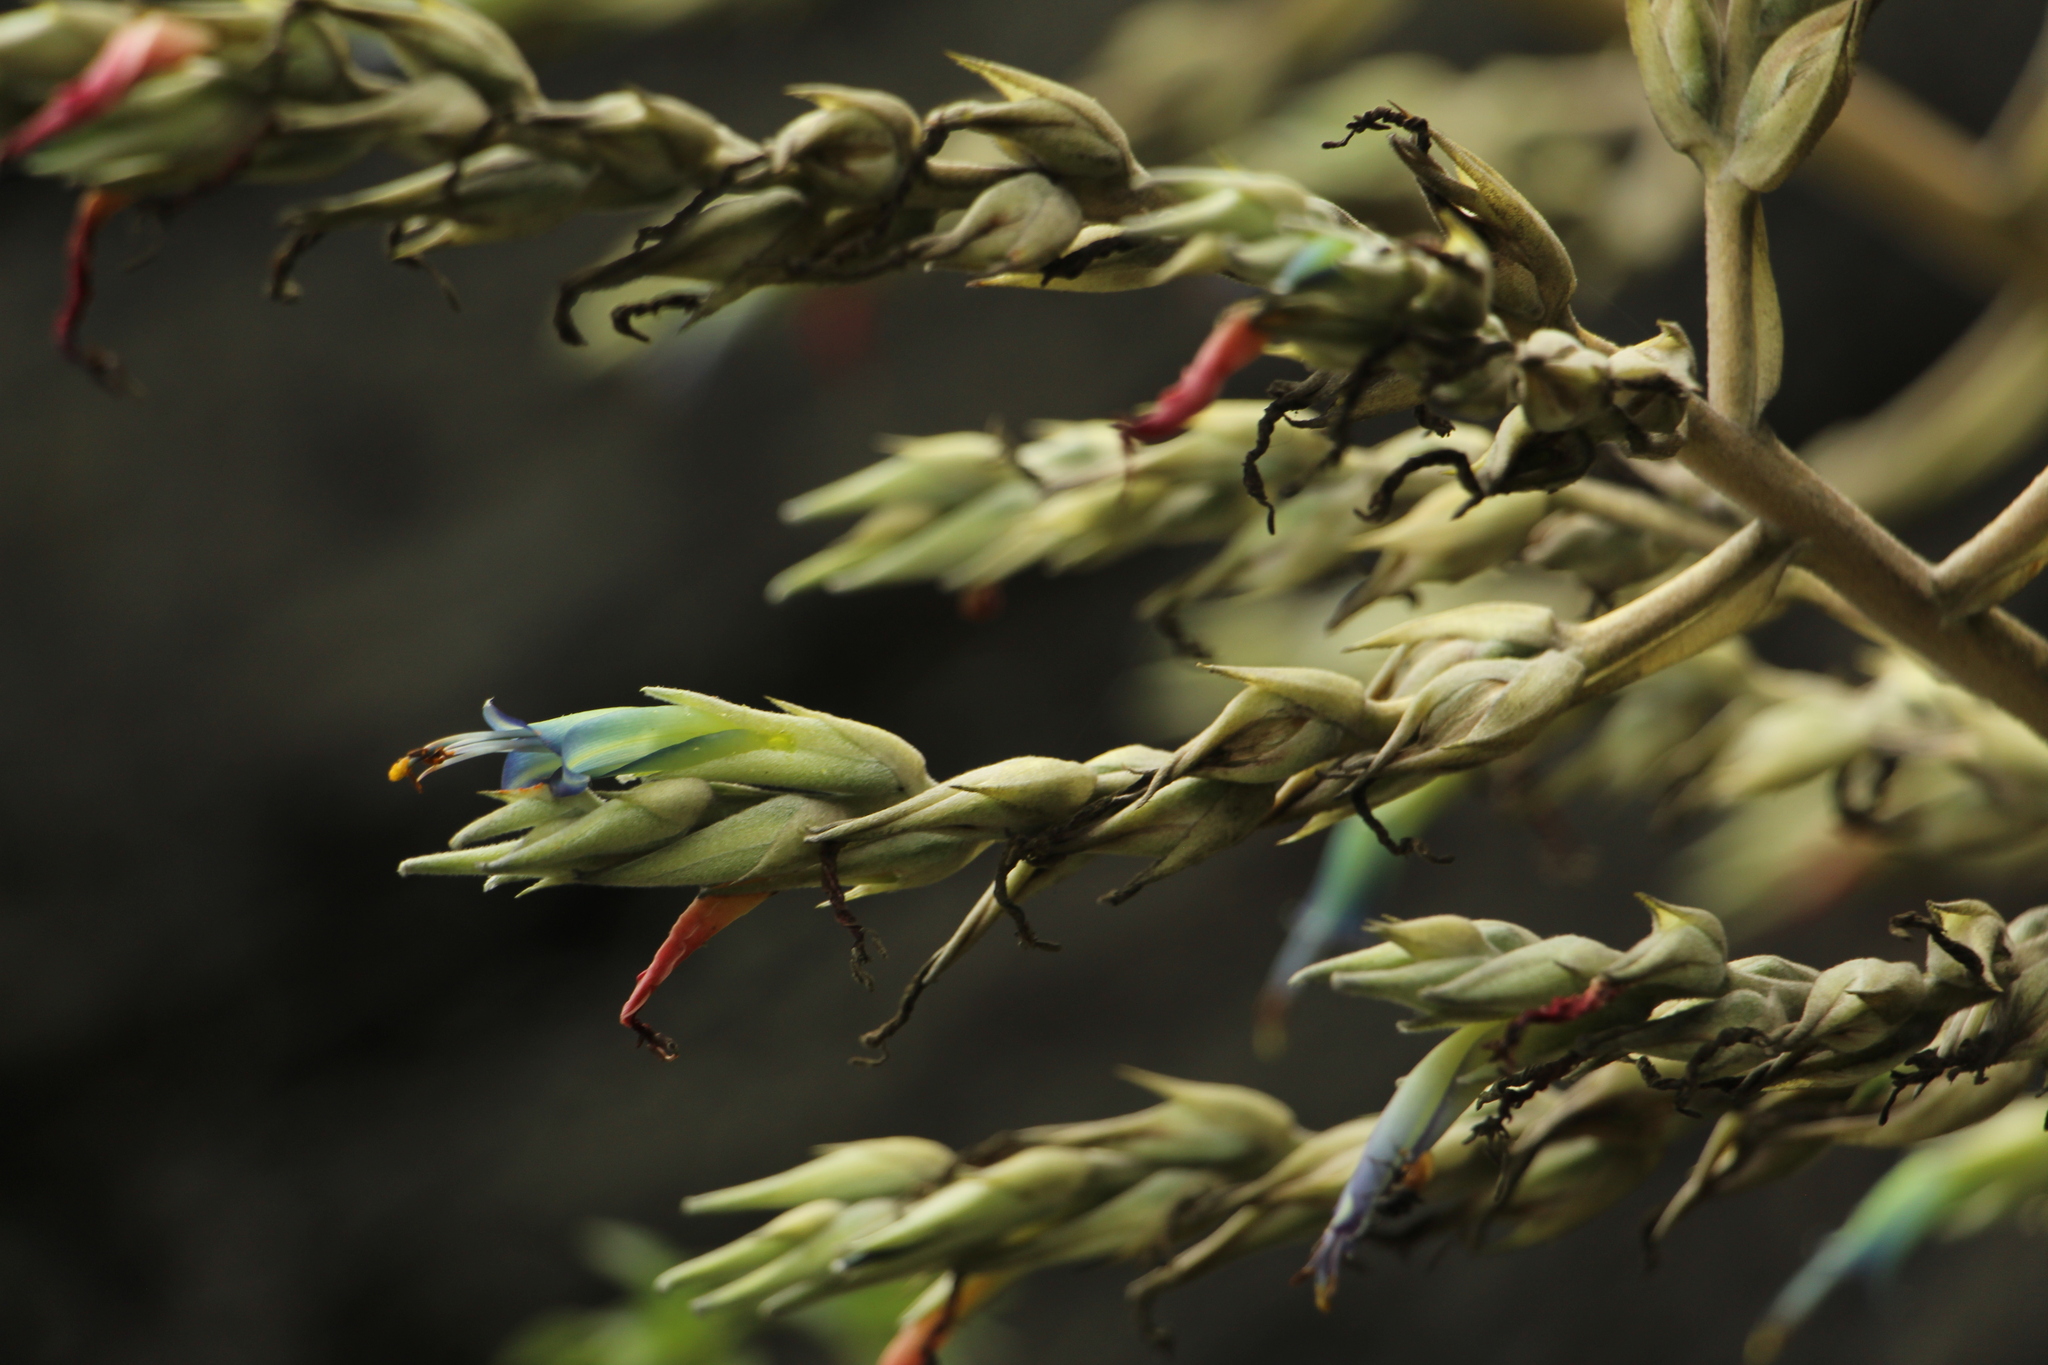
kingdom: Plantae
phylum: Tracheophyta
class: Liliopsida
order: Poales
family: Bromeliaceae
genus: Puya
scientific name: Puya floccosa
